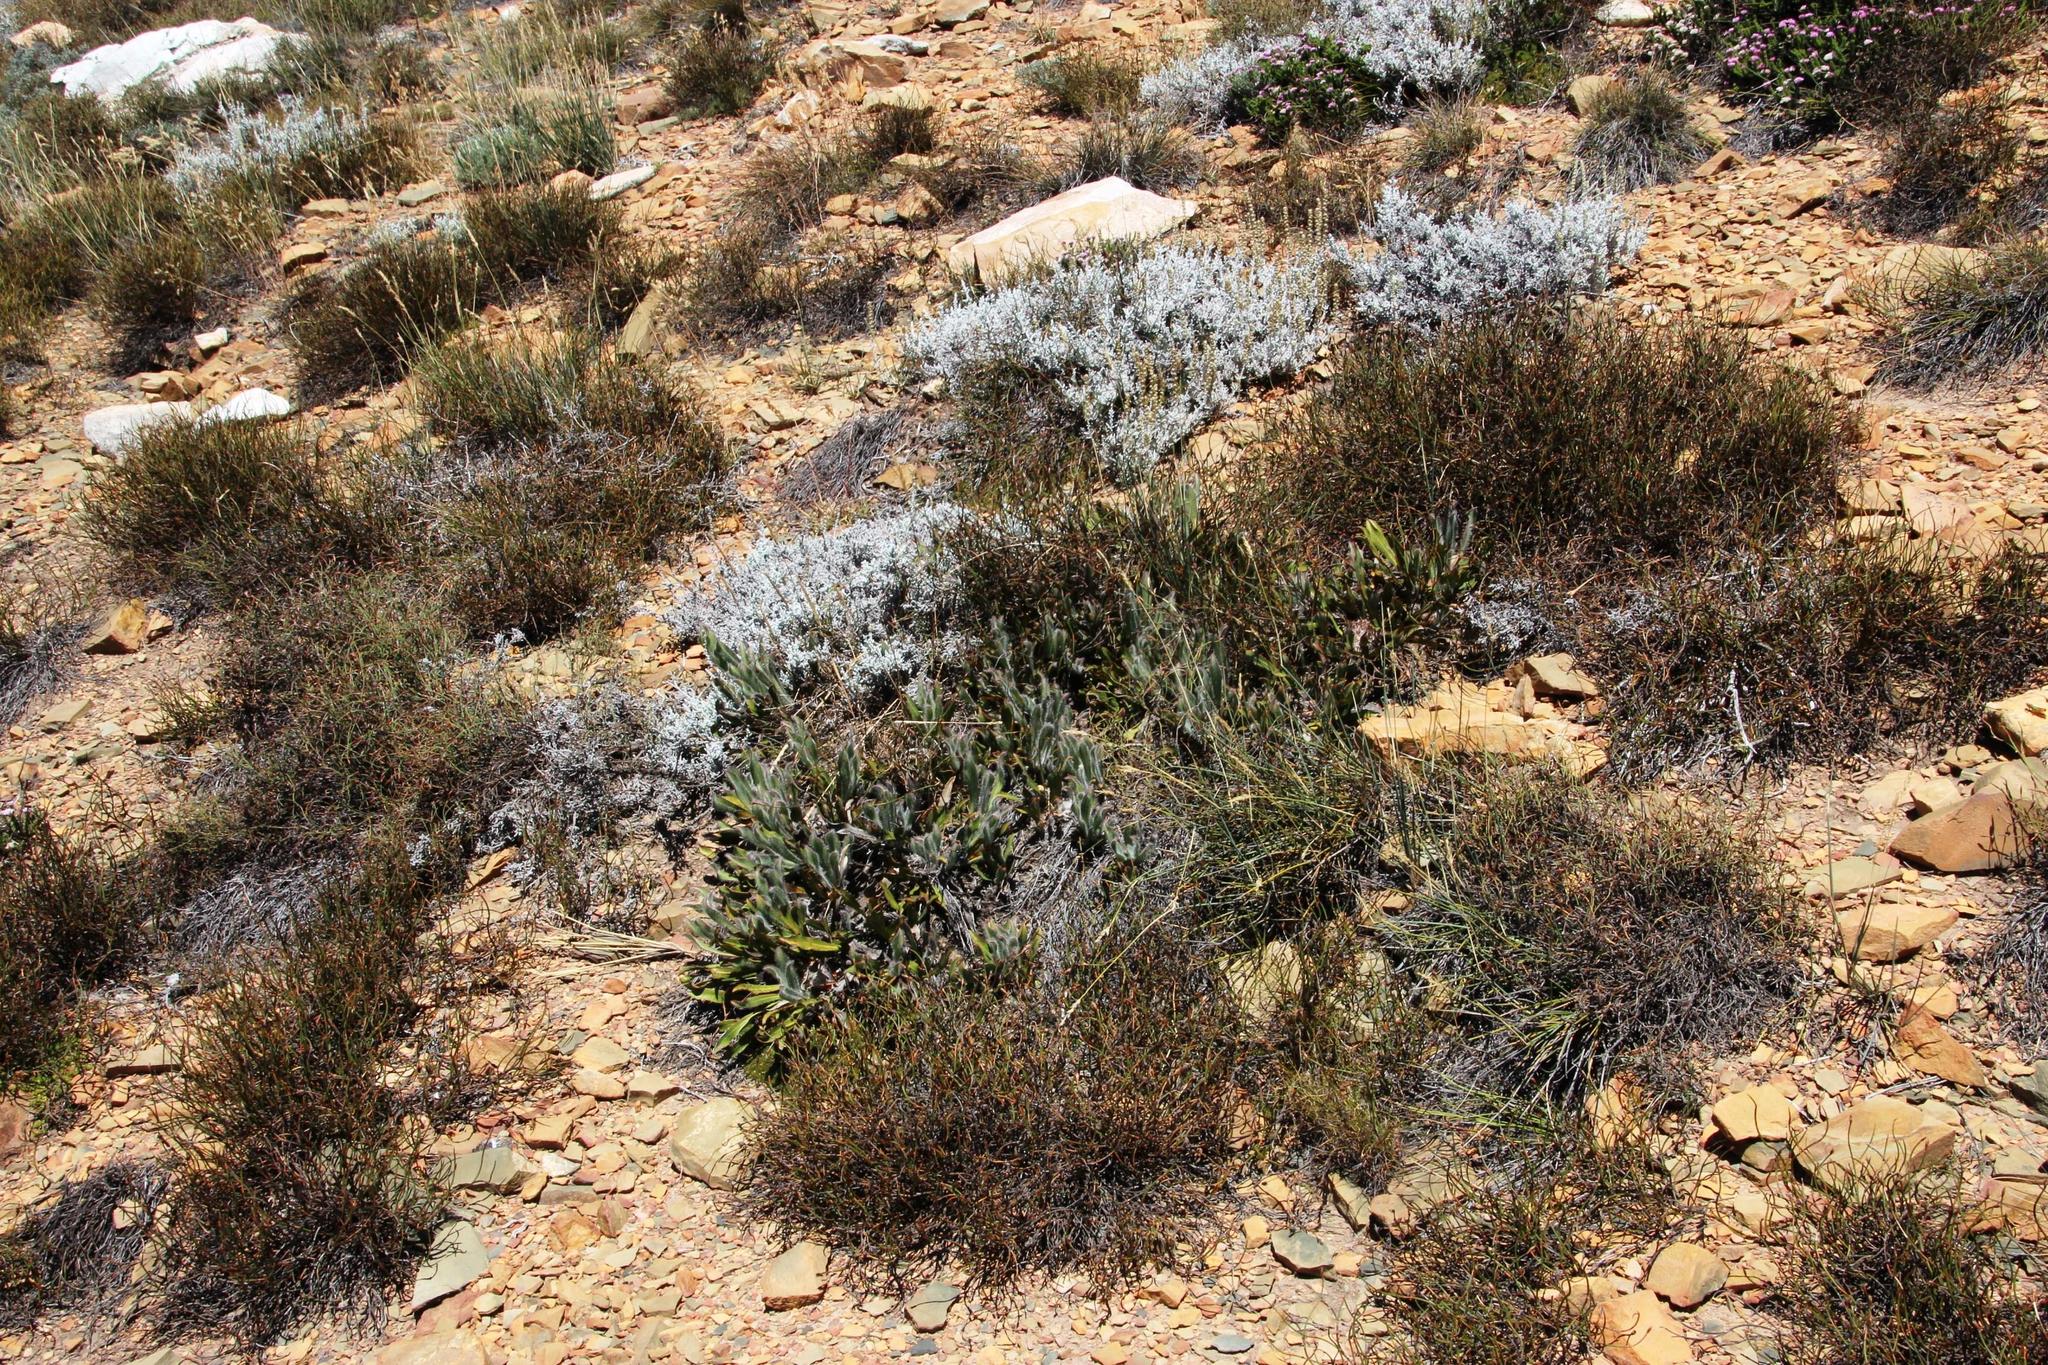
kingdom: Plantae
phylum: Tracheophyta
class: Magnoliopsida
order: Proteales
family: Proteaceae
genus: Protea
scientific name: Protea scabriuscula
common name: Hoary sugarbush
